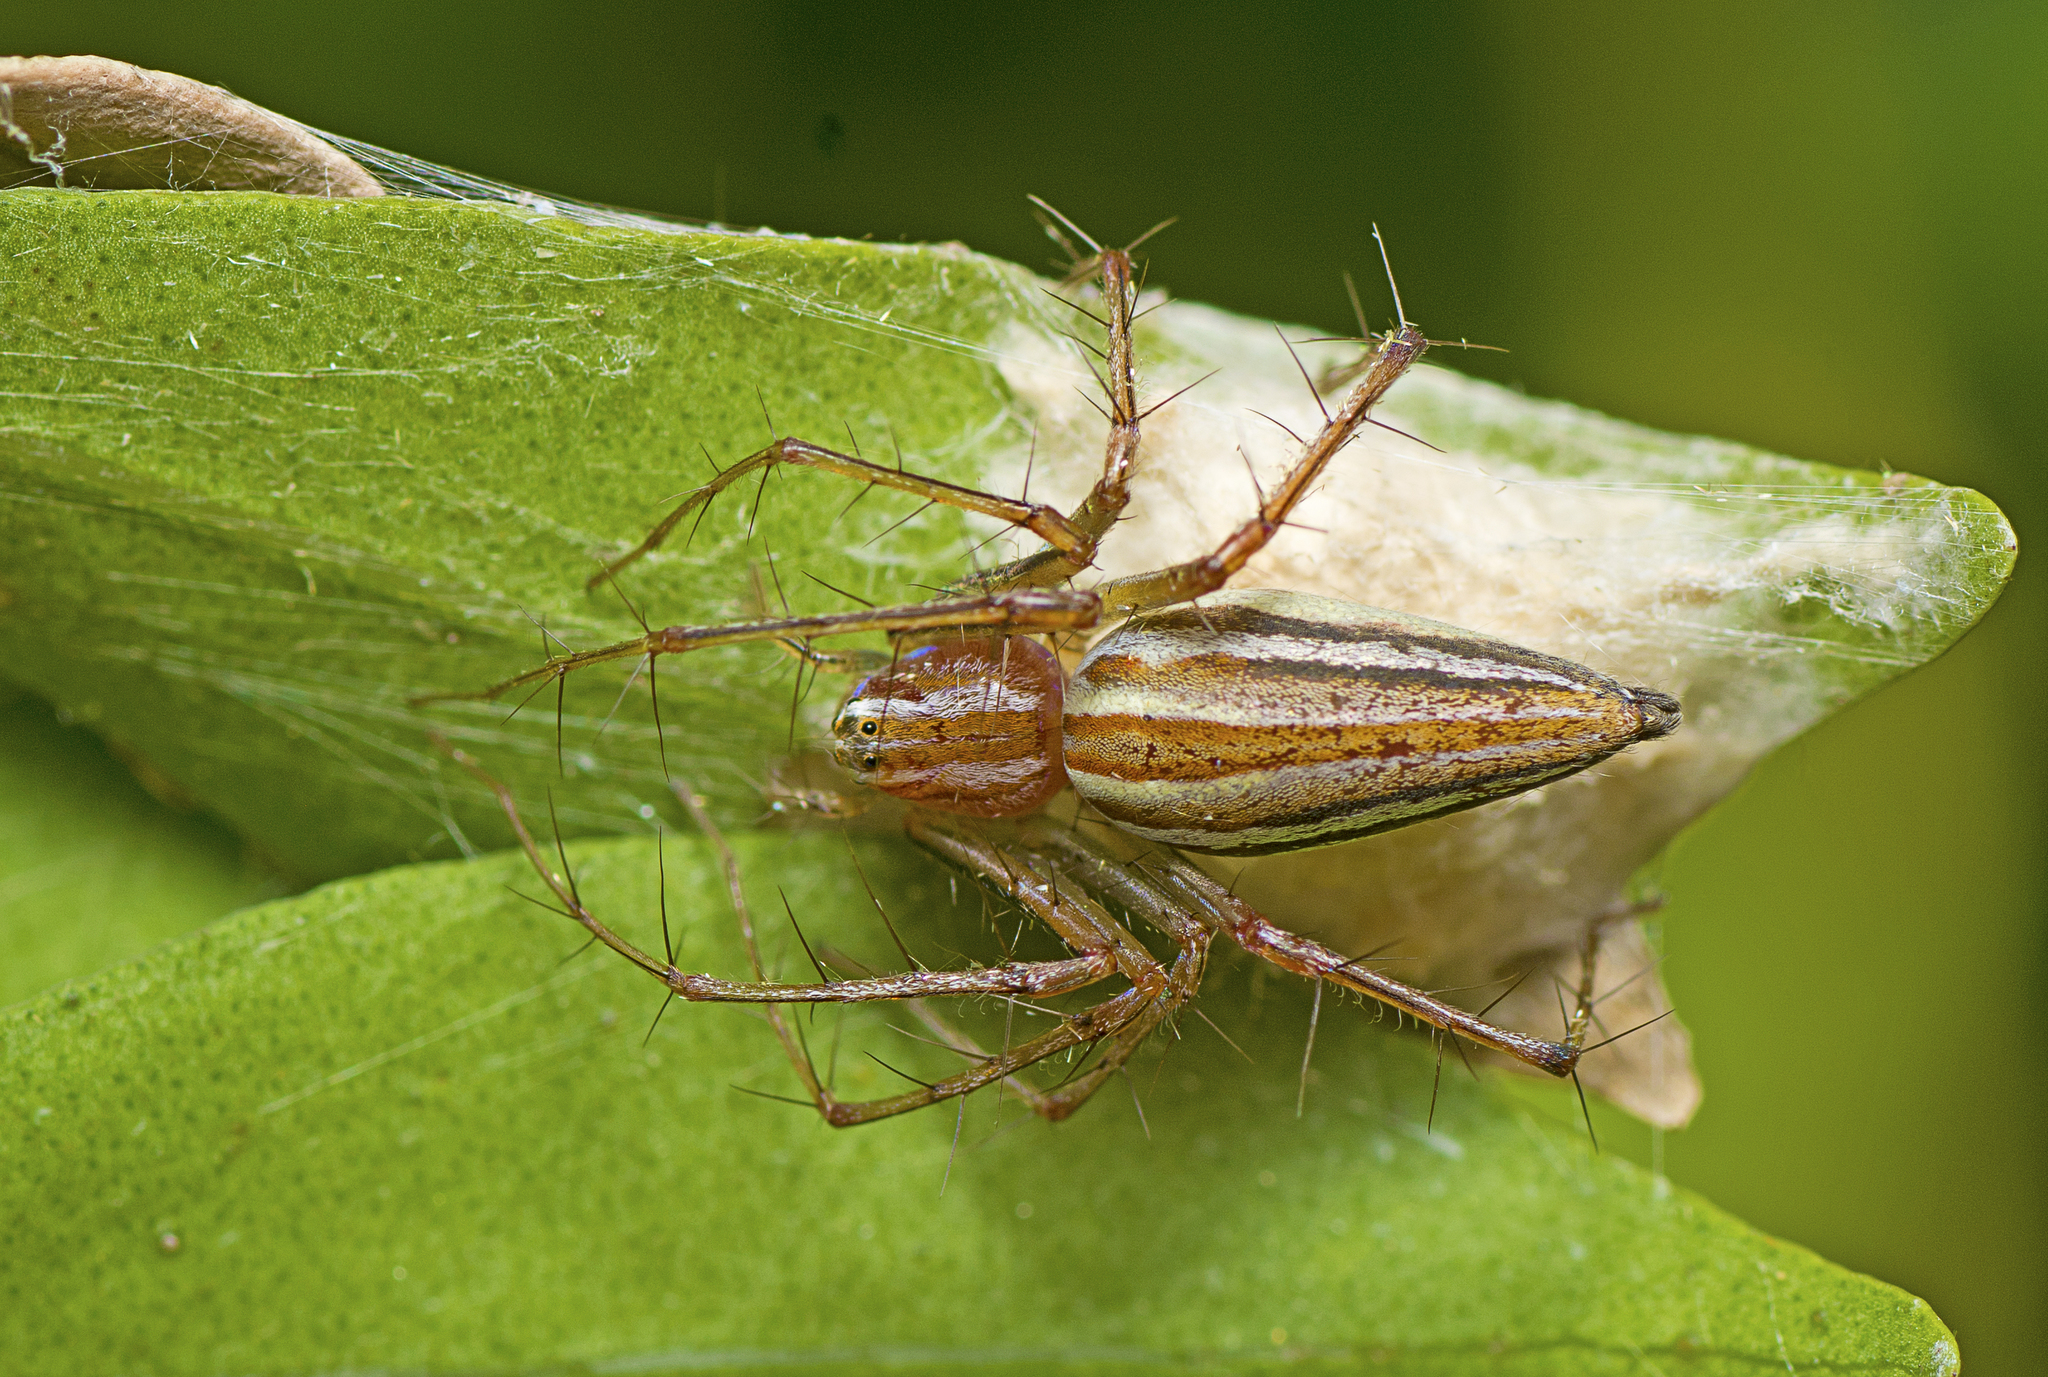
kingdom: Animalia
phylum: Arthropoda
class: Arachnida
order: Araneae
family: Oxyopidae
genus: Oxyopes
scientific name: Oxyopes macilentus
